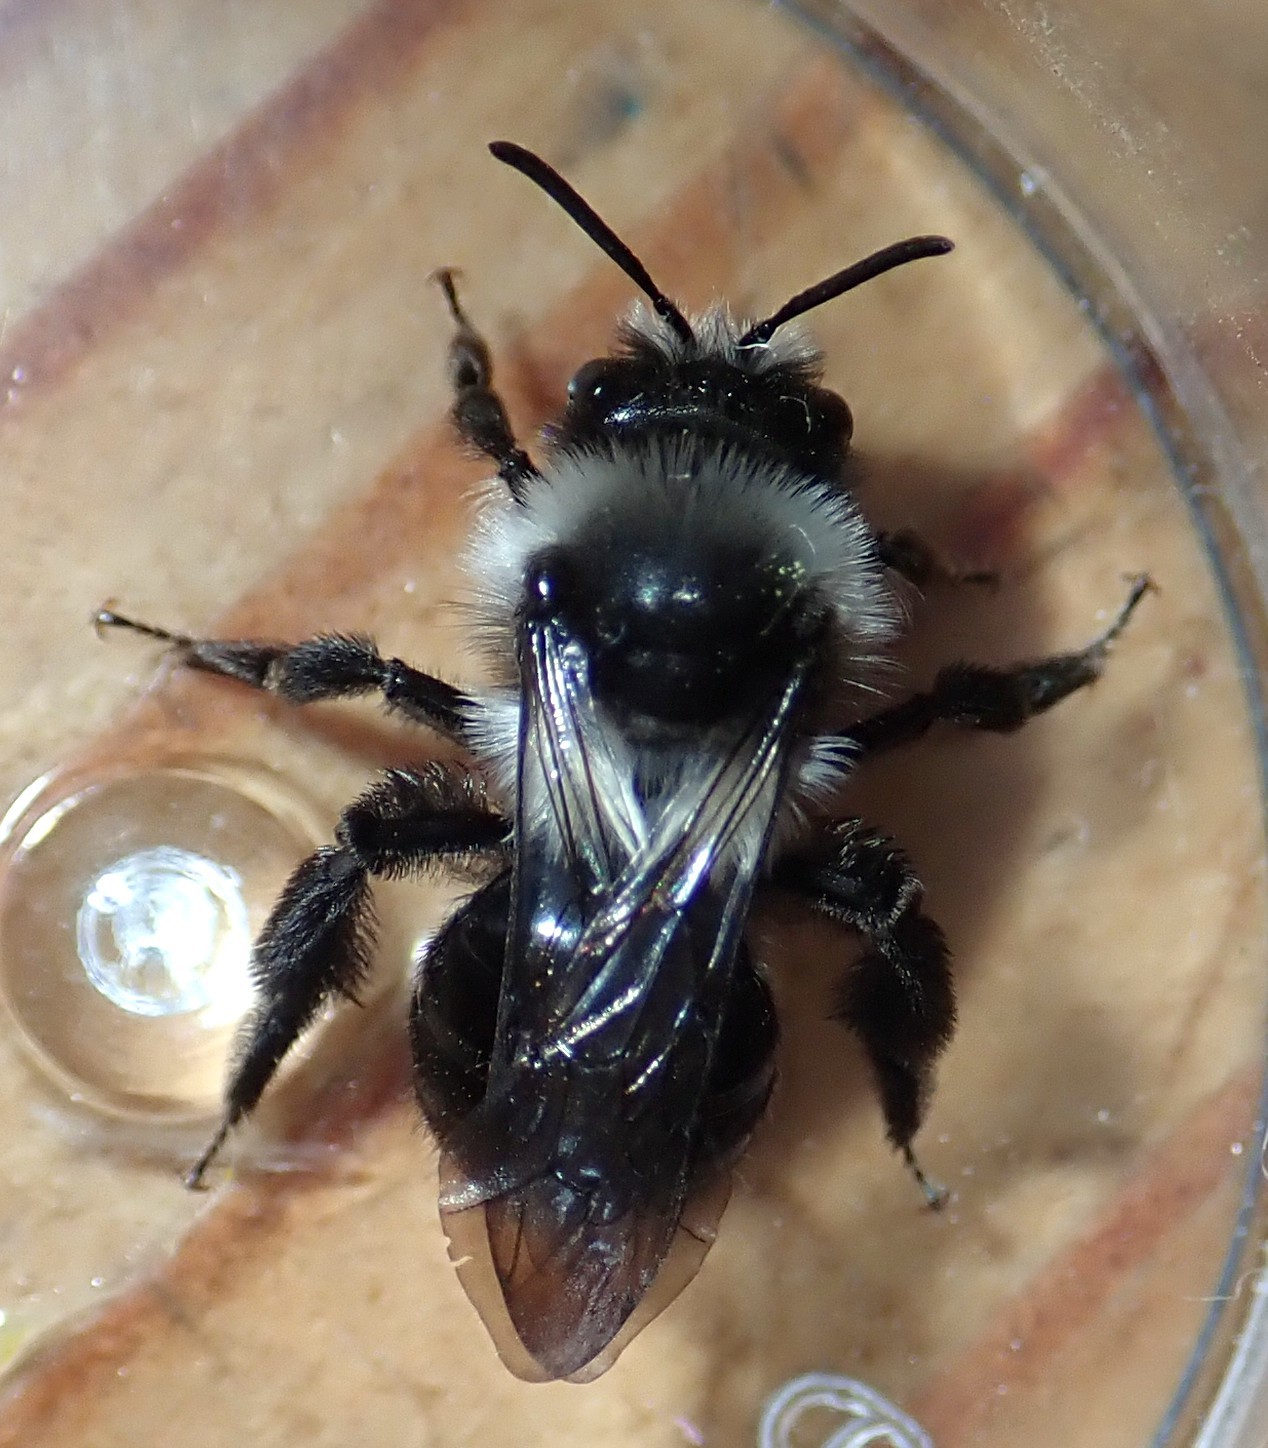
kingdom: Animalia
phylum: Arthropoda
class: Insecta
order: Hymenoptera
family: Andrenidae
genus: Andrena
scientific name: Andrena cineraria
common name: Ashy mining bee
